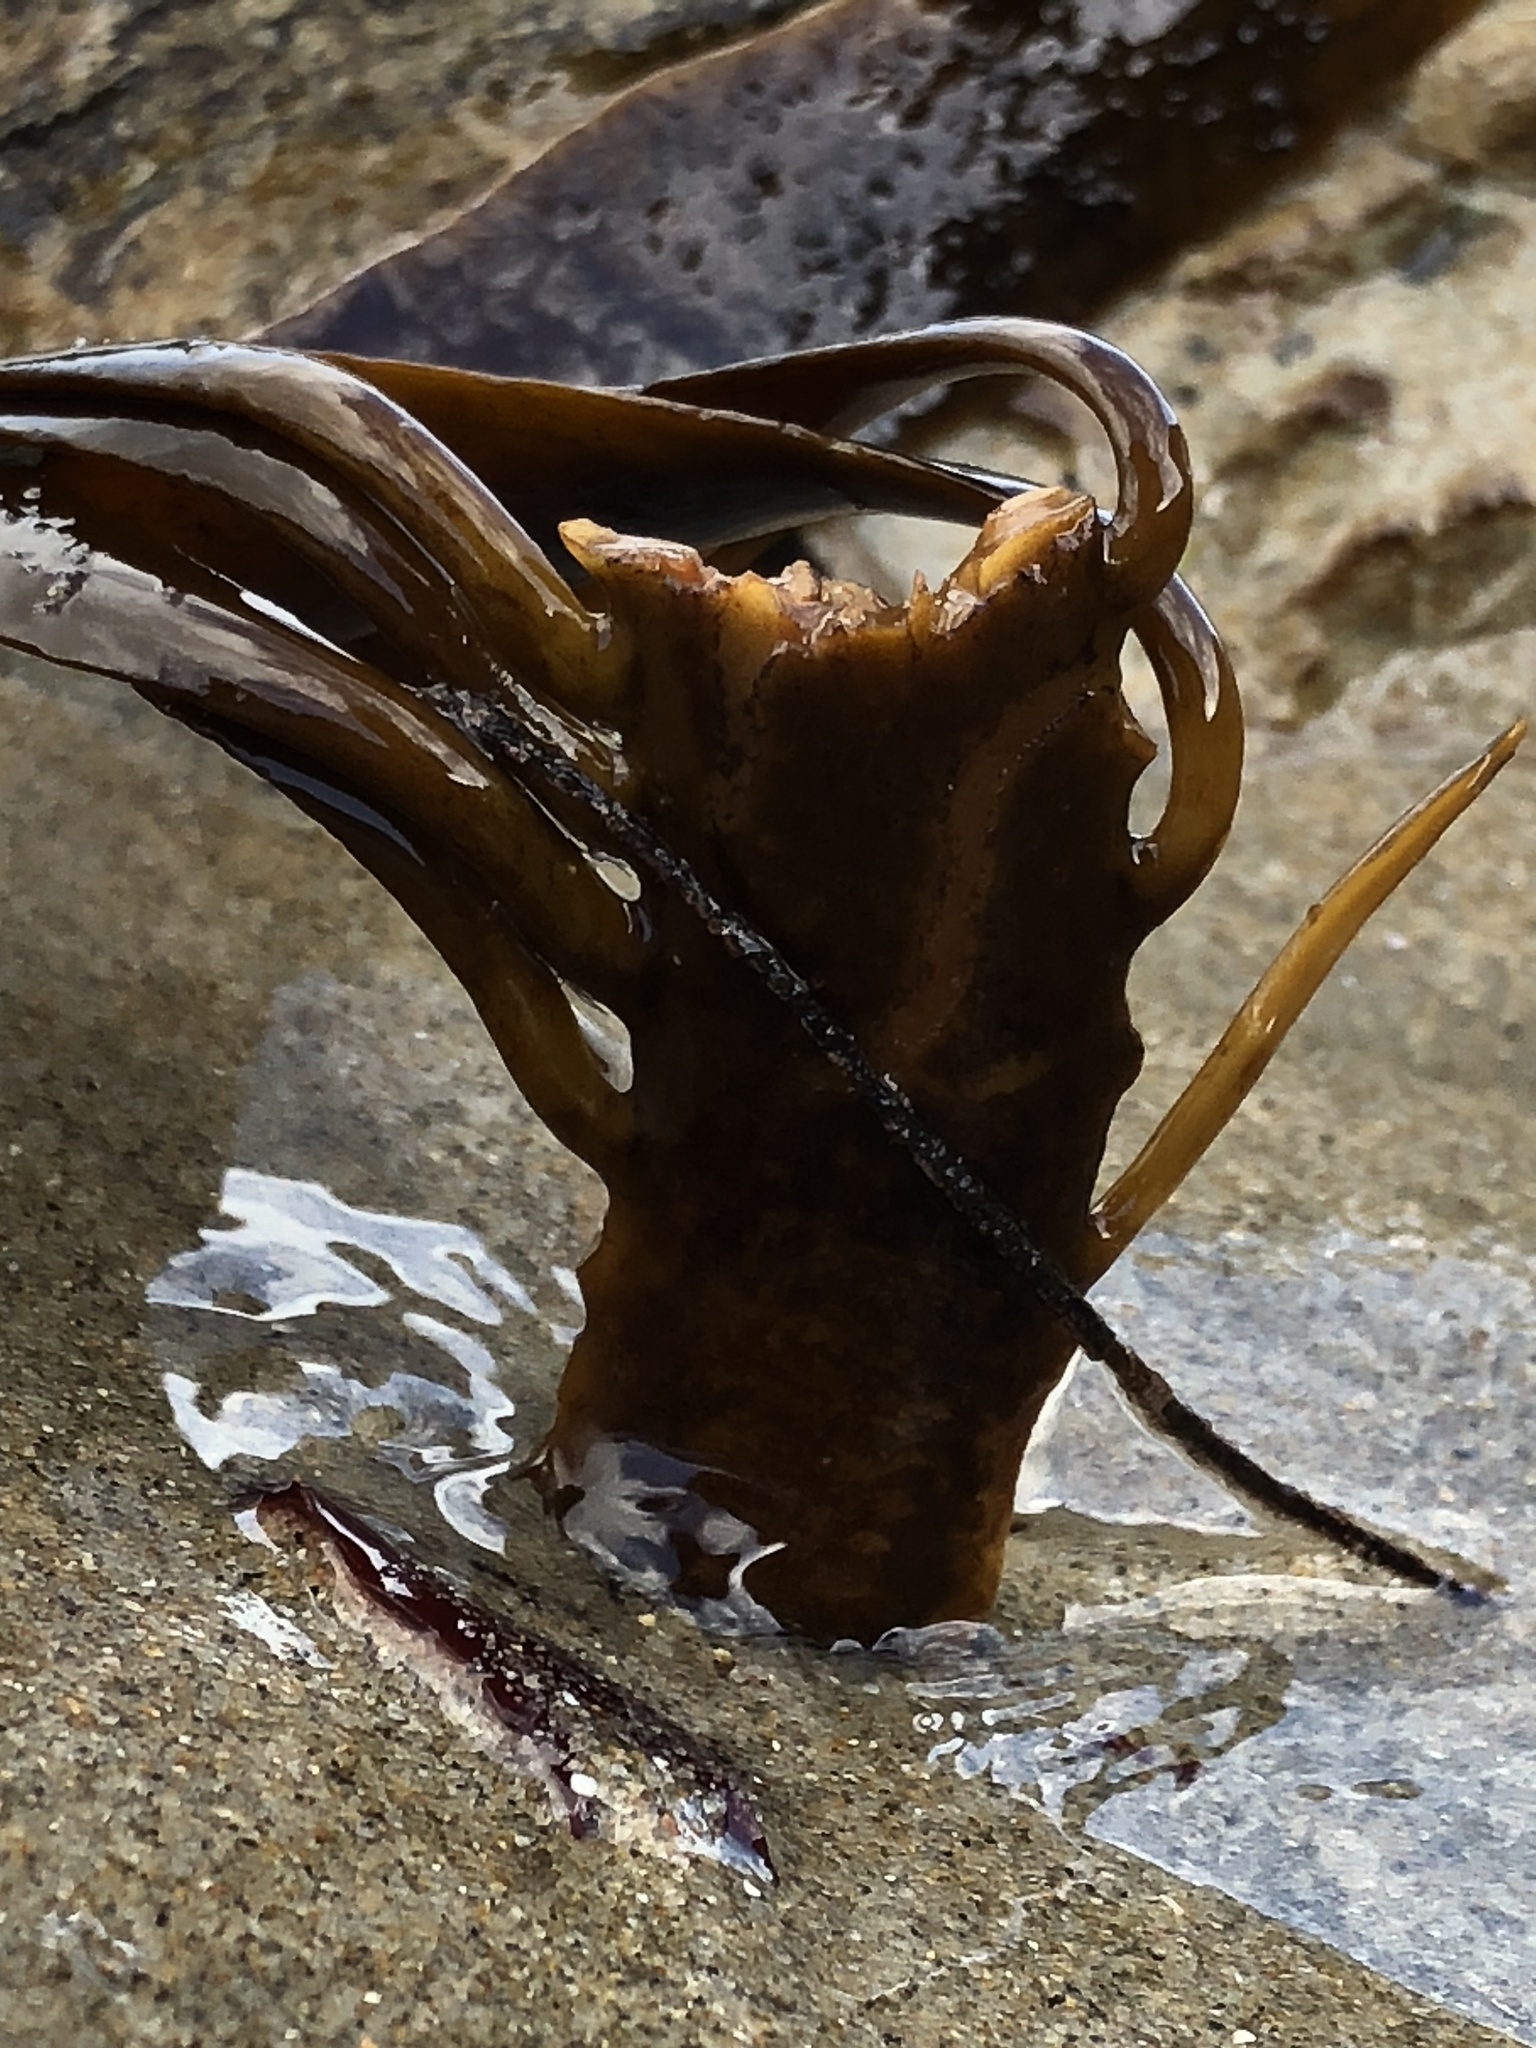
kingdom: Chromista
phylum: Ochrophyta
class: Phaeophyceae
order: Laminariales
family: Alariaceae
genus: Pterygophora
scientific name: Pterygophora californica
